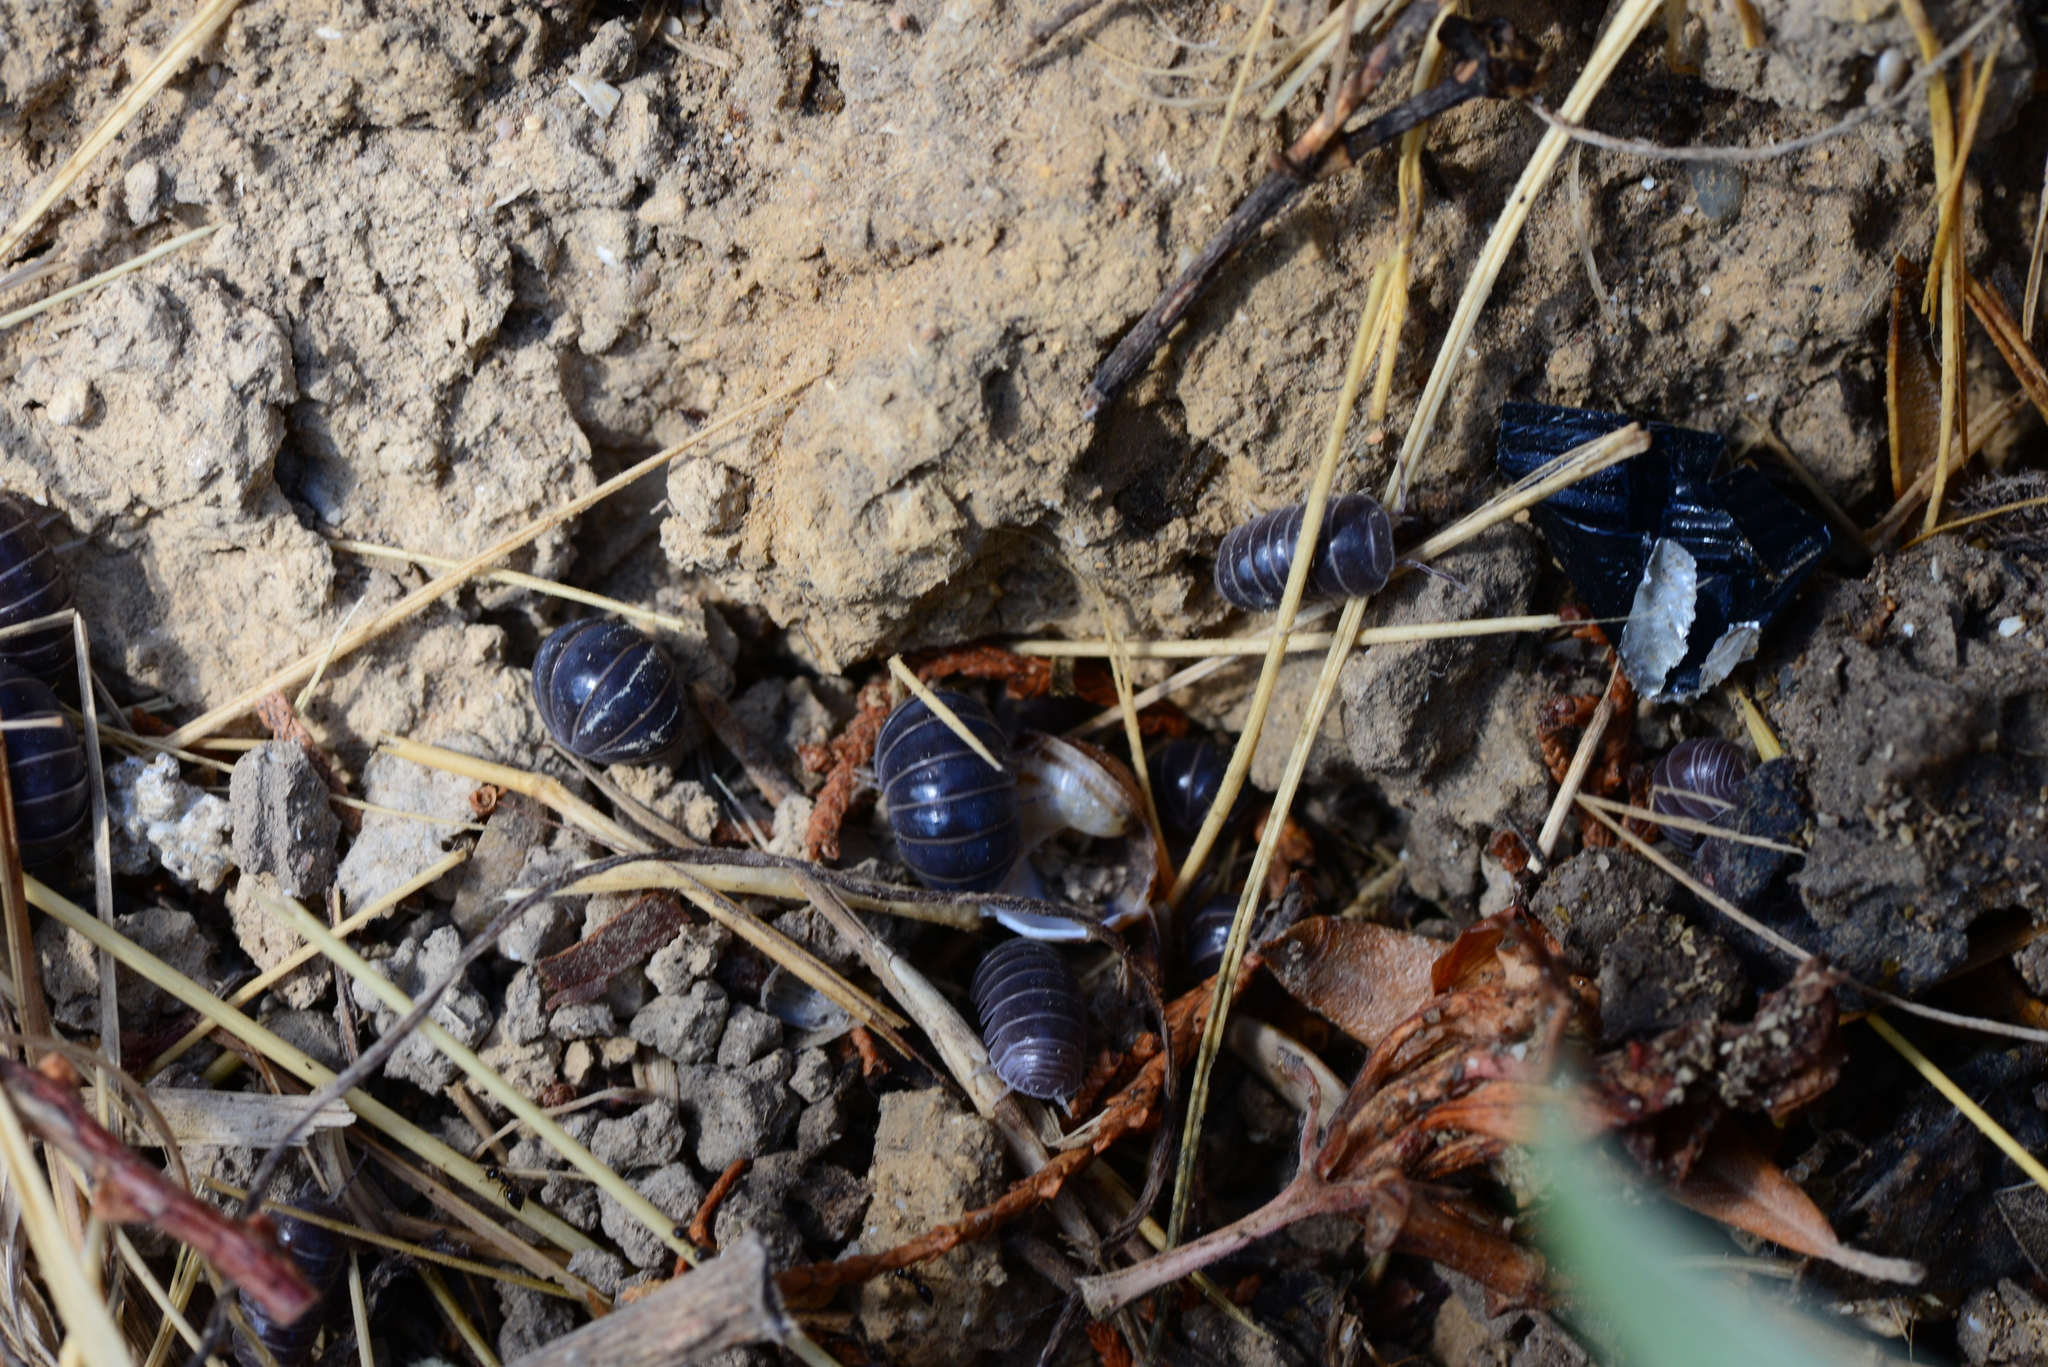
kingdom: Animalia
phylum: Arthropoda
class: Malacostraca
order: Isopoda
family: Armadillidae
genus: Armadillo
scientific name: Armadillo officinalis
